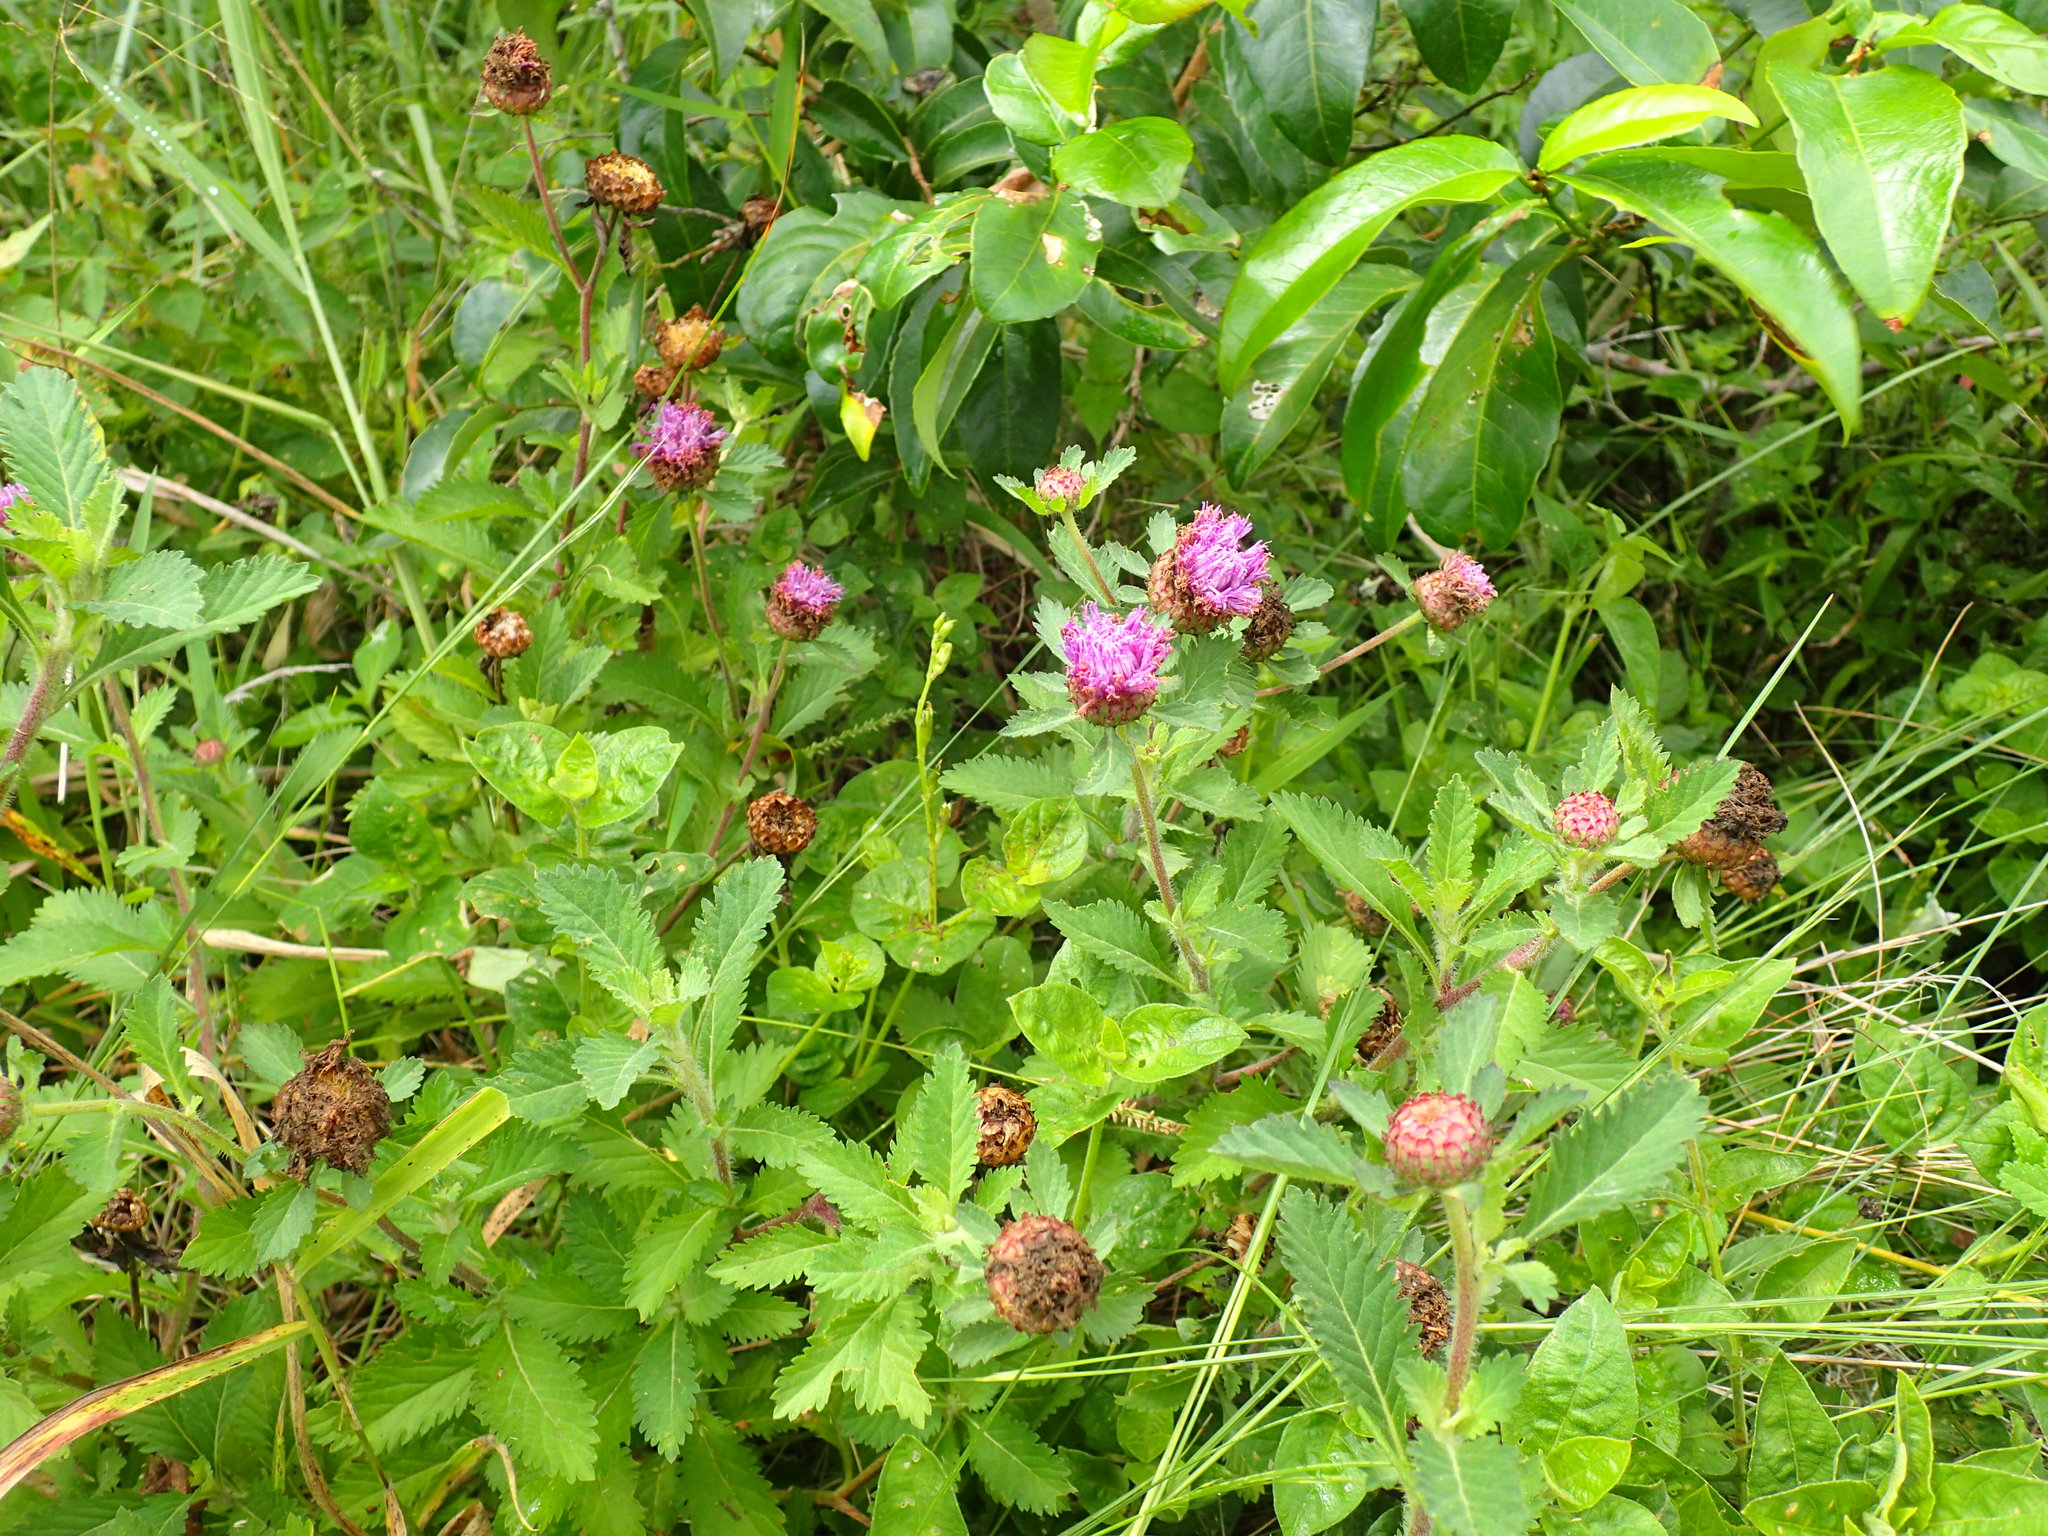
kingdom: Plantae
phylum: Tracheophyta
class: Magnoliopsida
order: Asterales
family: Asteraceae
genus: Centratherum
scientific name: Centratherum punctatum
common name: Larkdaisy
